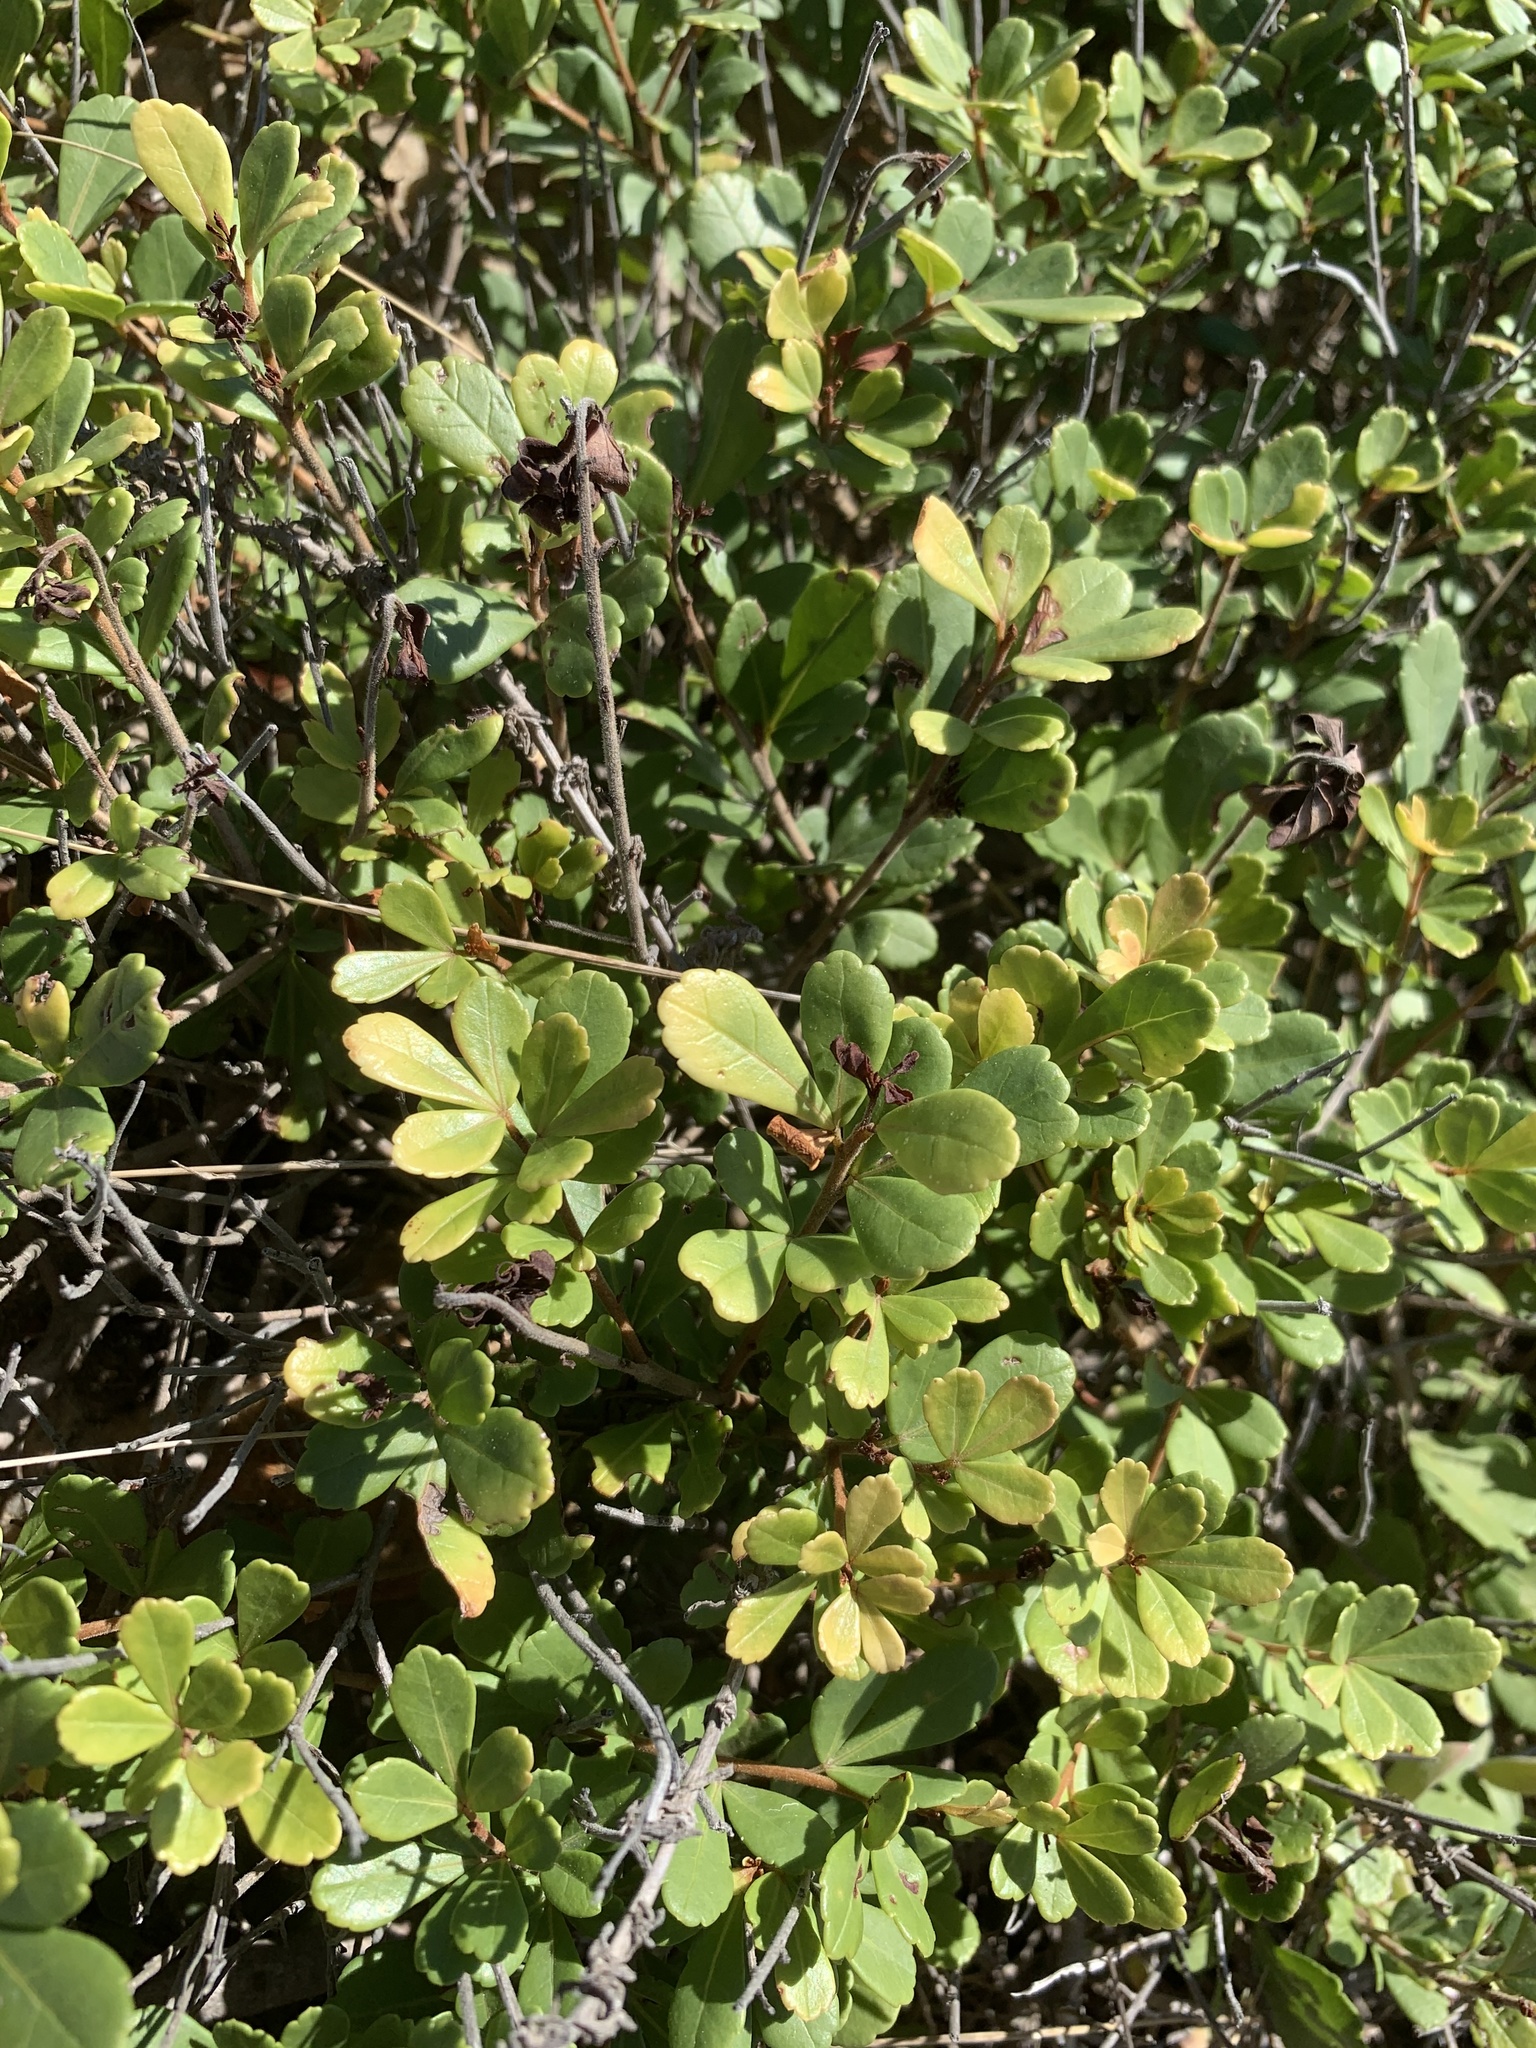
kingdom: Plantae
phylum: Tracheophyta
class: Magnoliopsida
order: Sapindales
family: Anacardiaceae
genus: Searsia
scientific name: Searsia crenata
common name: Crowberry
